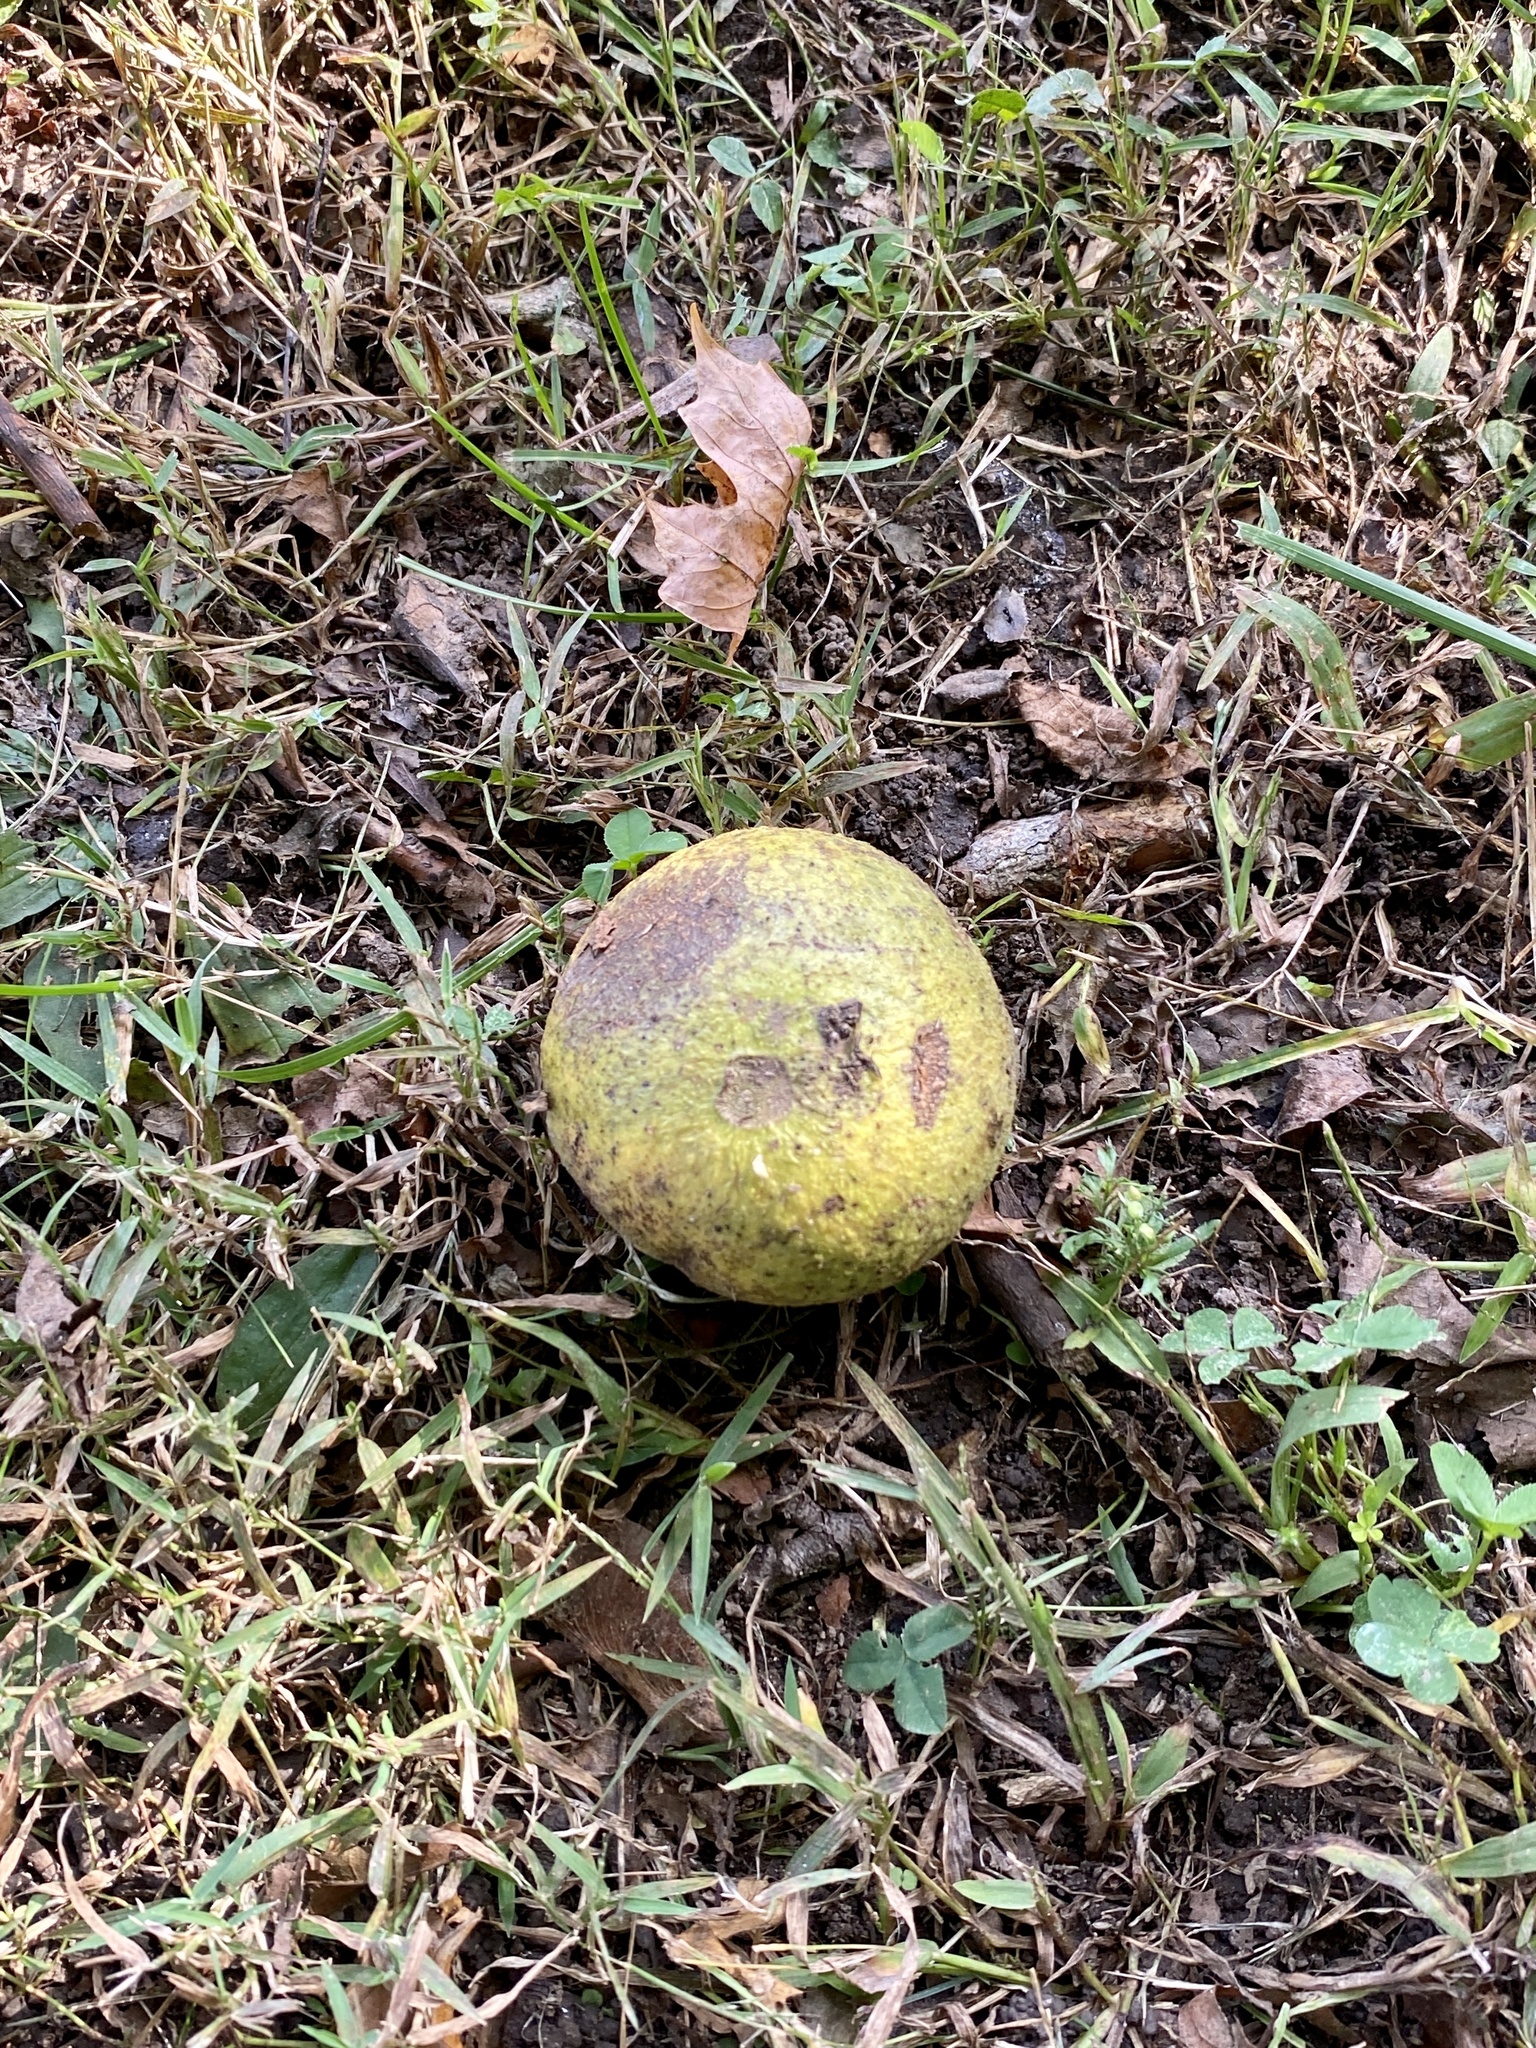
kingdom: Plantae
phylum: Tracheophyta
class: Magnoliopsida
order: Fagales
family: Juglandaceae
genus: Juglans
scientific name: Juglans nigra
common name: Black walnut
